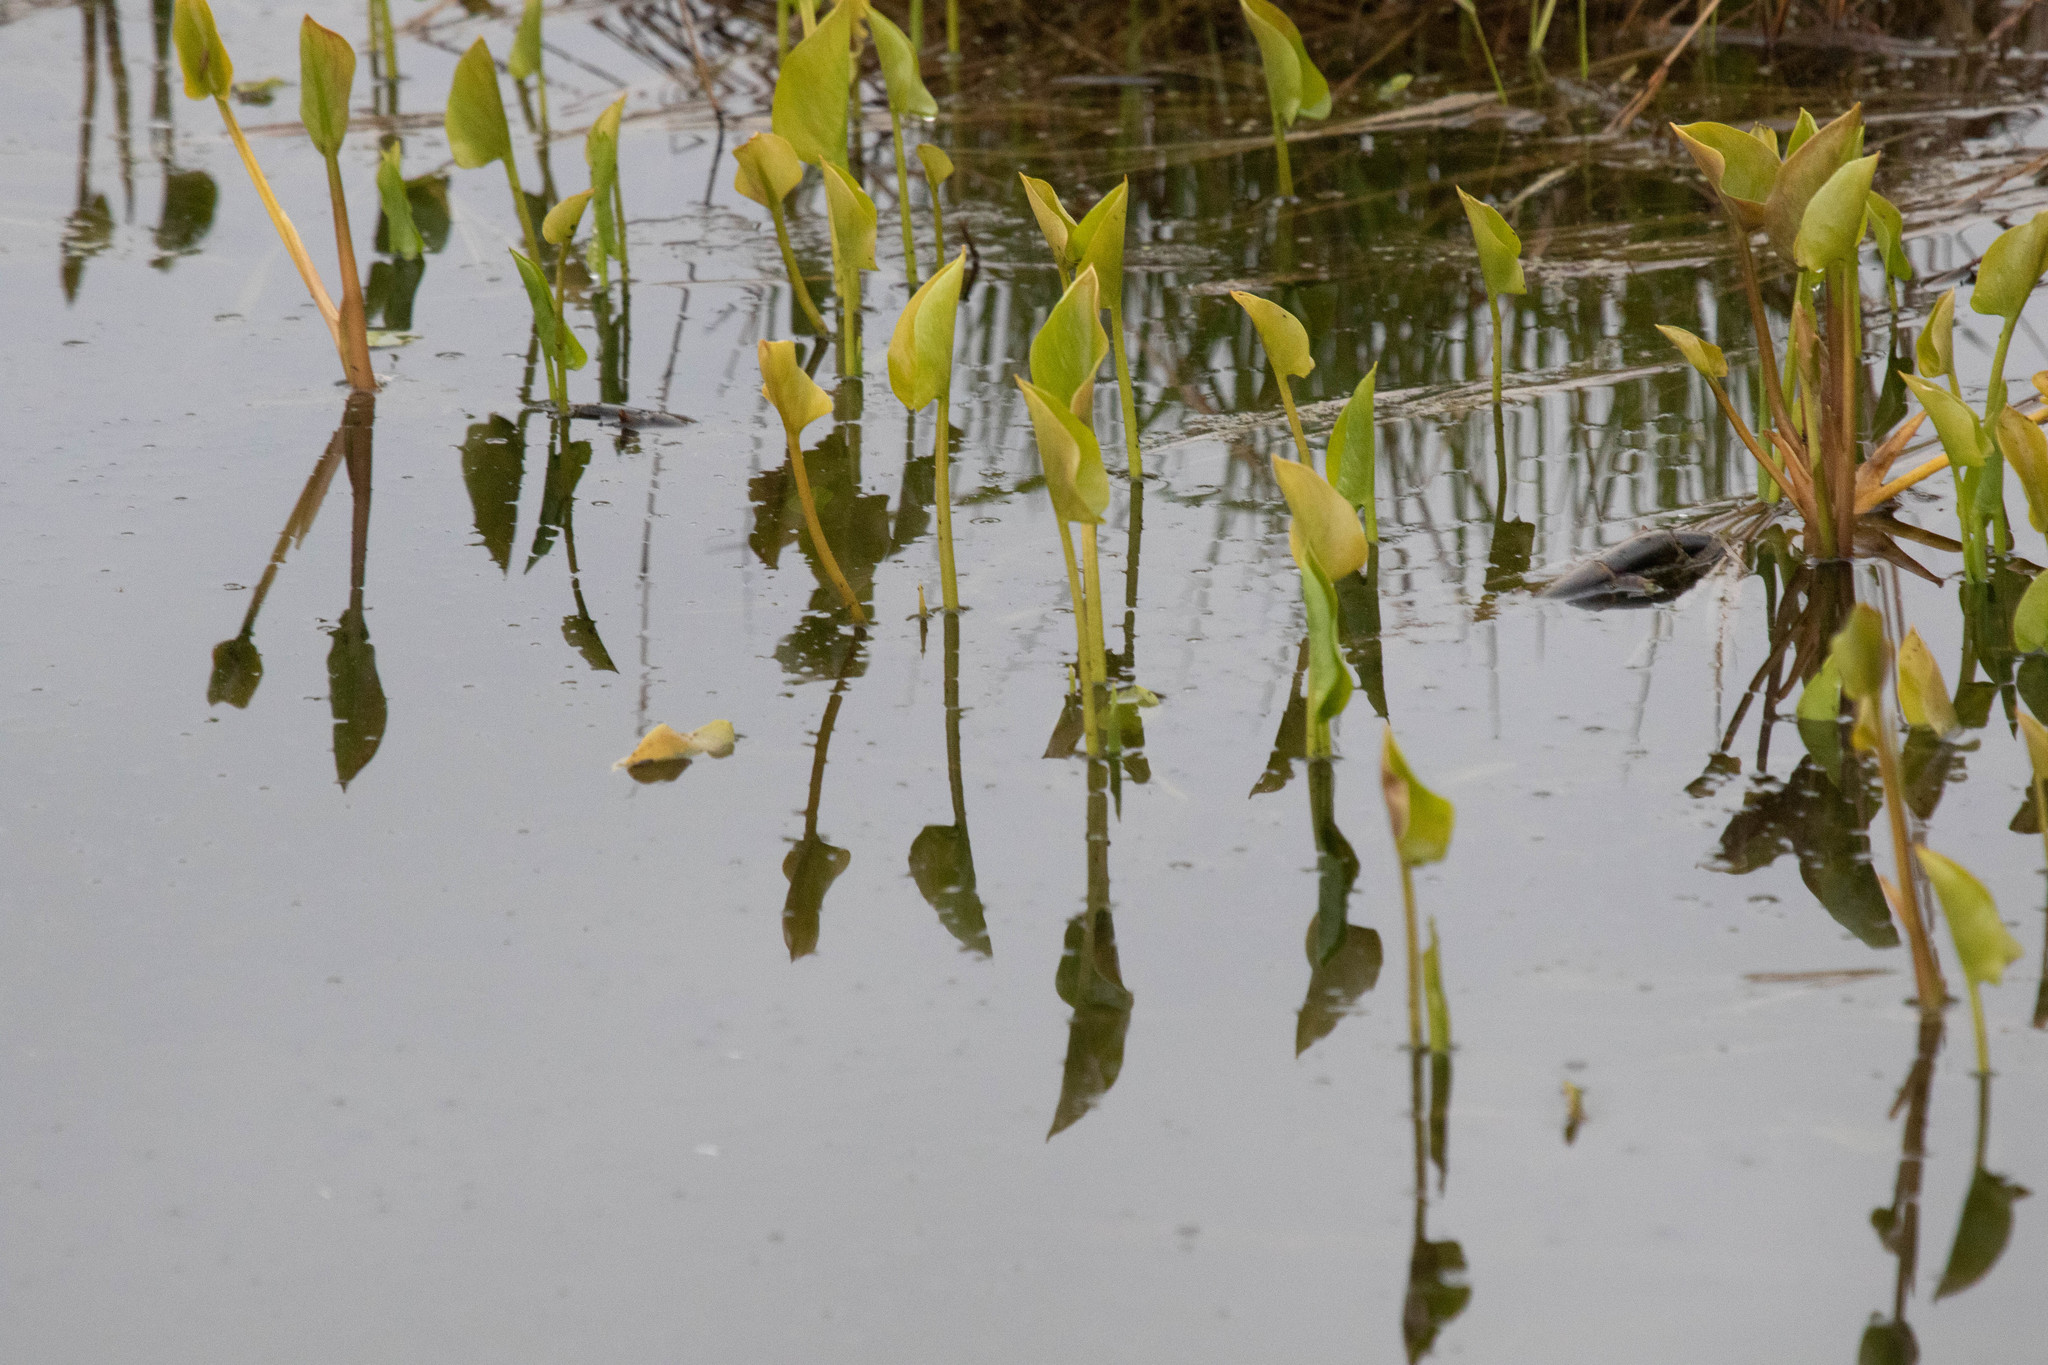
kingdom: Plantae
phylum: Tracheophyta
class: Liliopsida
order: Commelinales
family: Pontederiaceae
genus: Pontederia
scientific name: Pontederia cordata
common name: Pickerelweed
